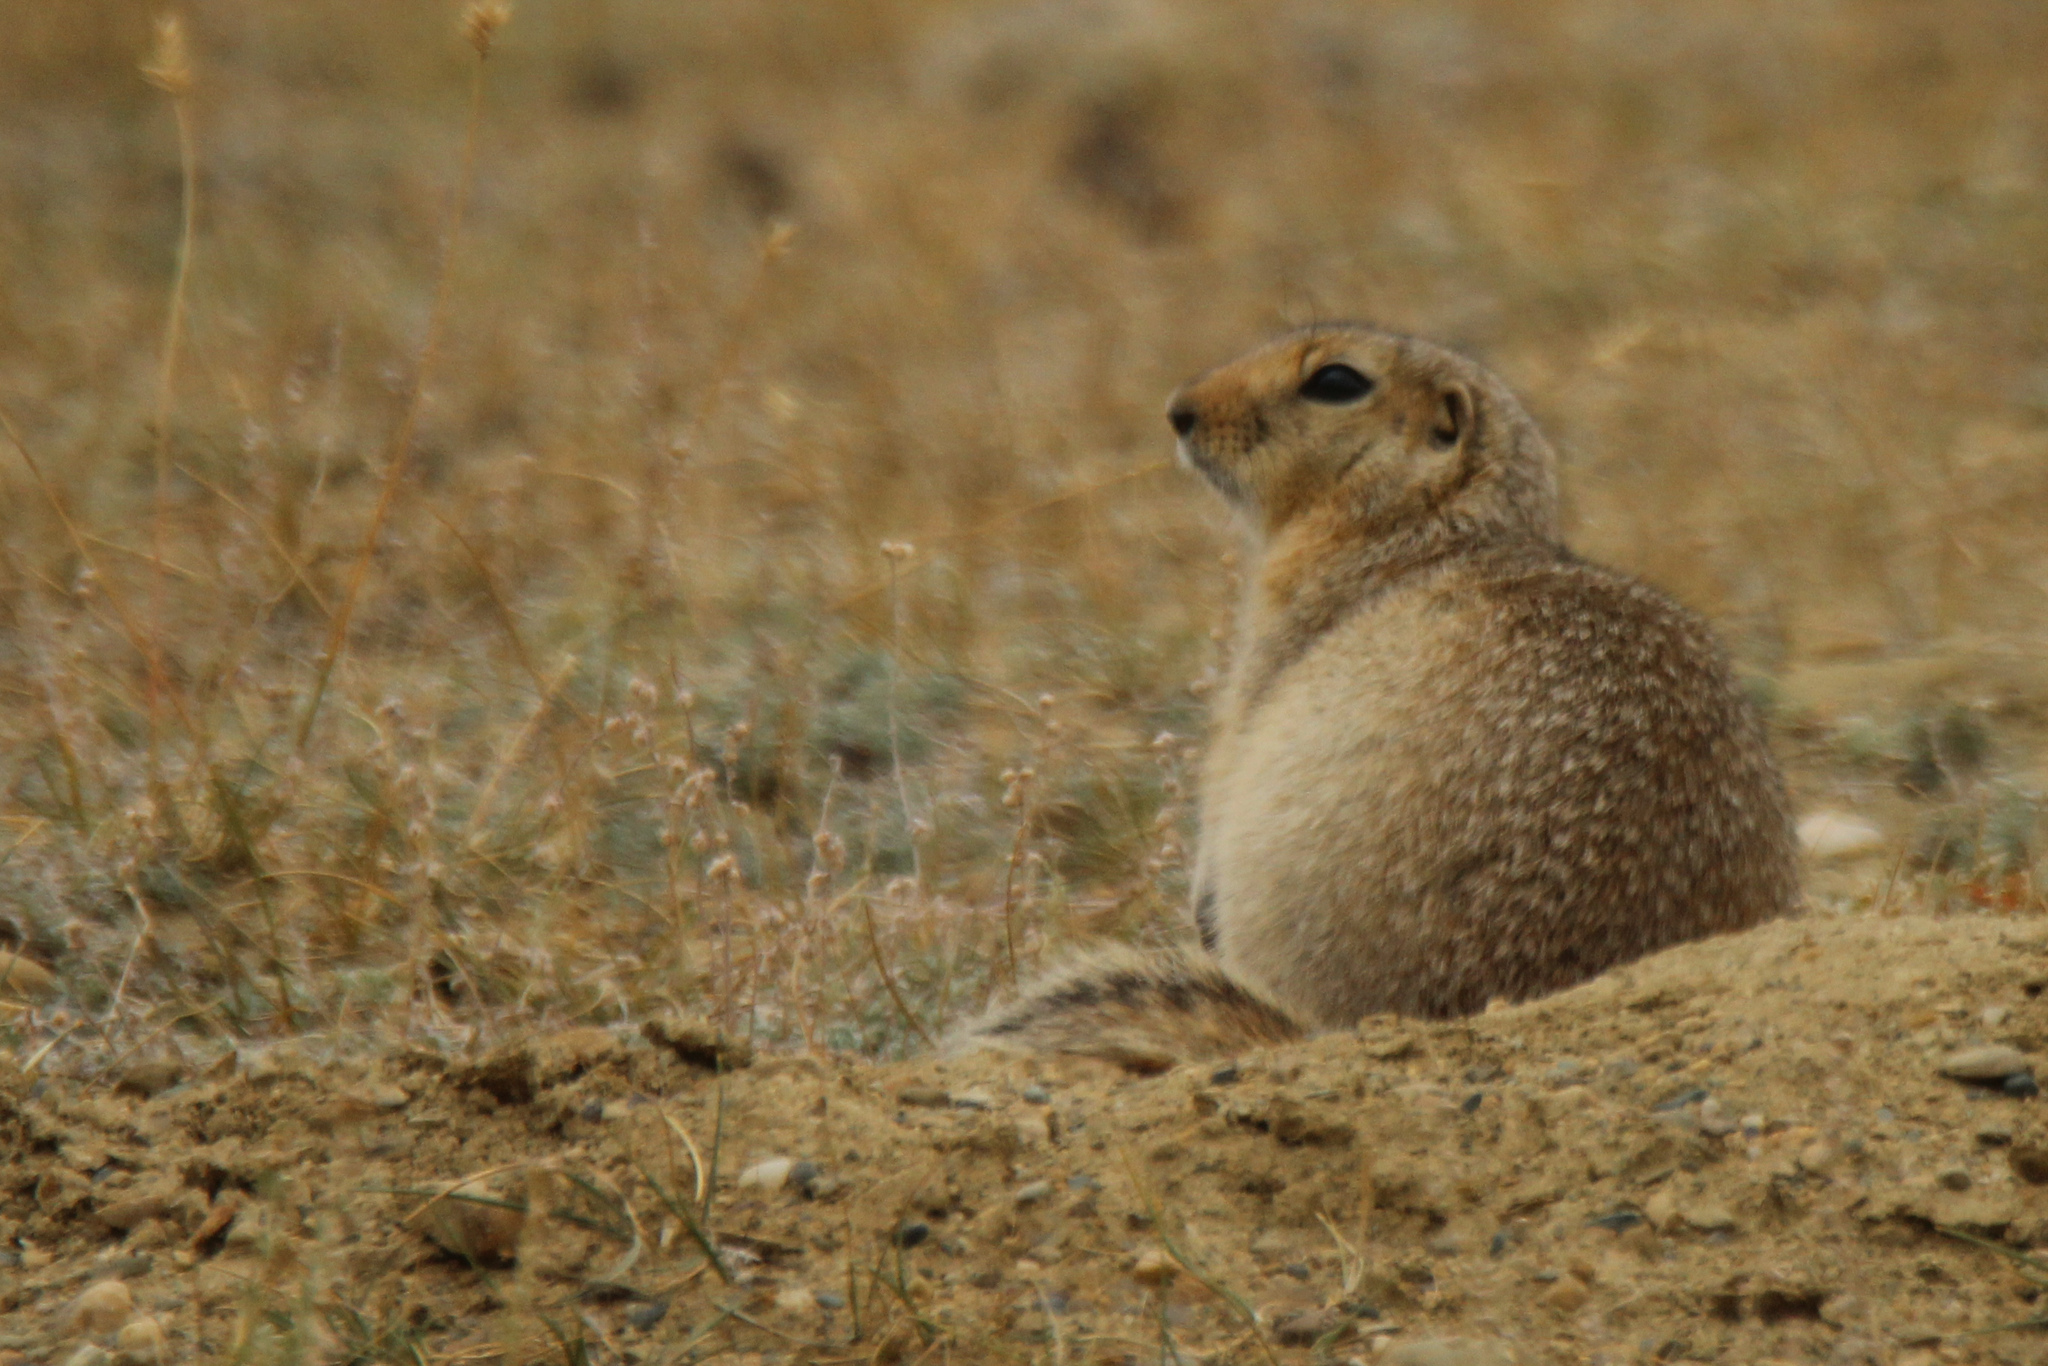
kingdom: Animalia
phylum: Chordata
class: Mammalia
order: Rodentia
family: Sciuridae
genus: Urocitellus
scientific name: Urocitellus undulatus
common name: Long-tailed ground squirrel
